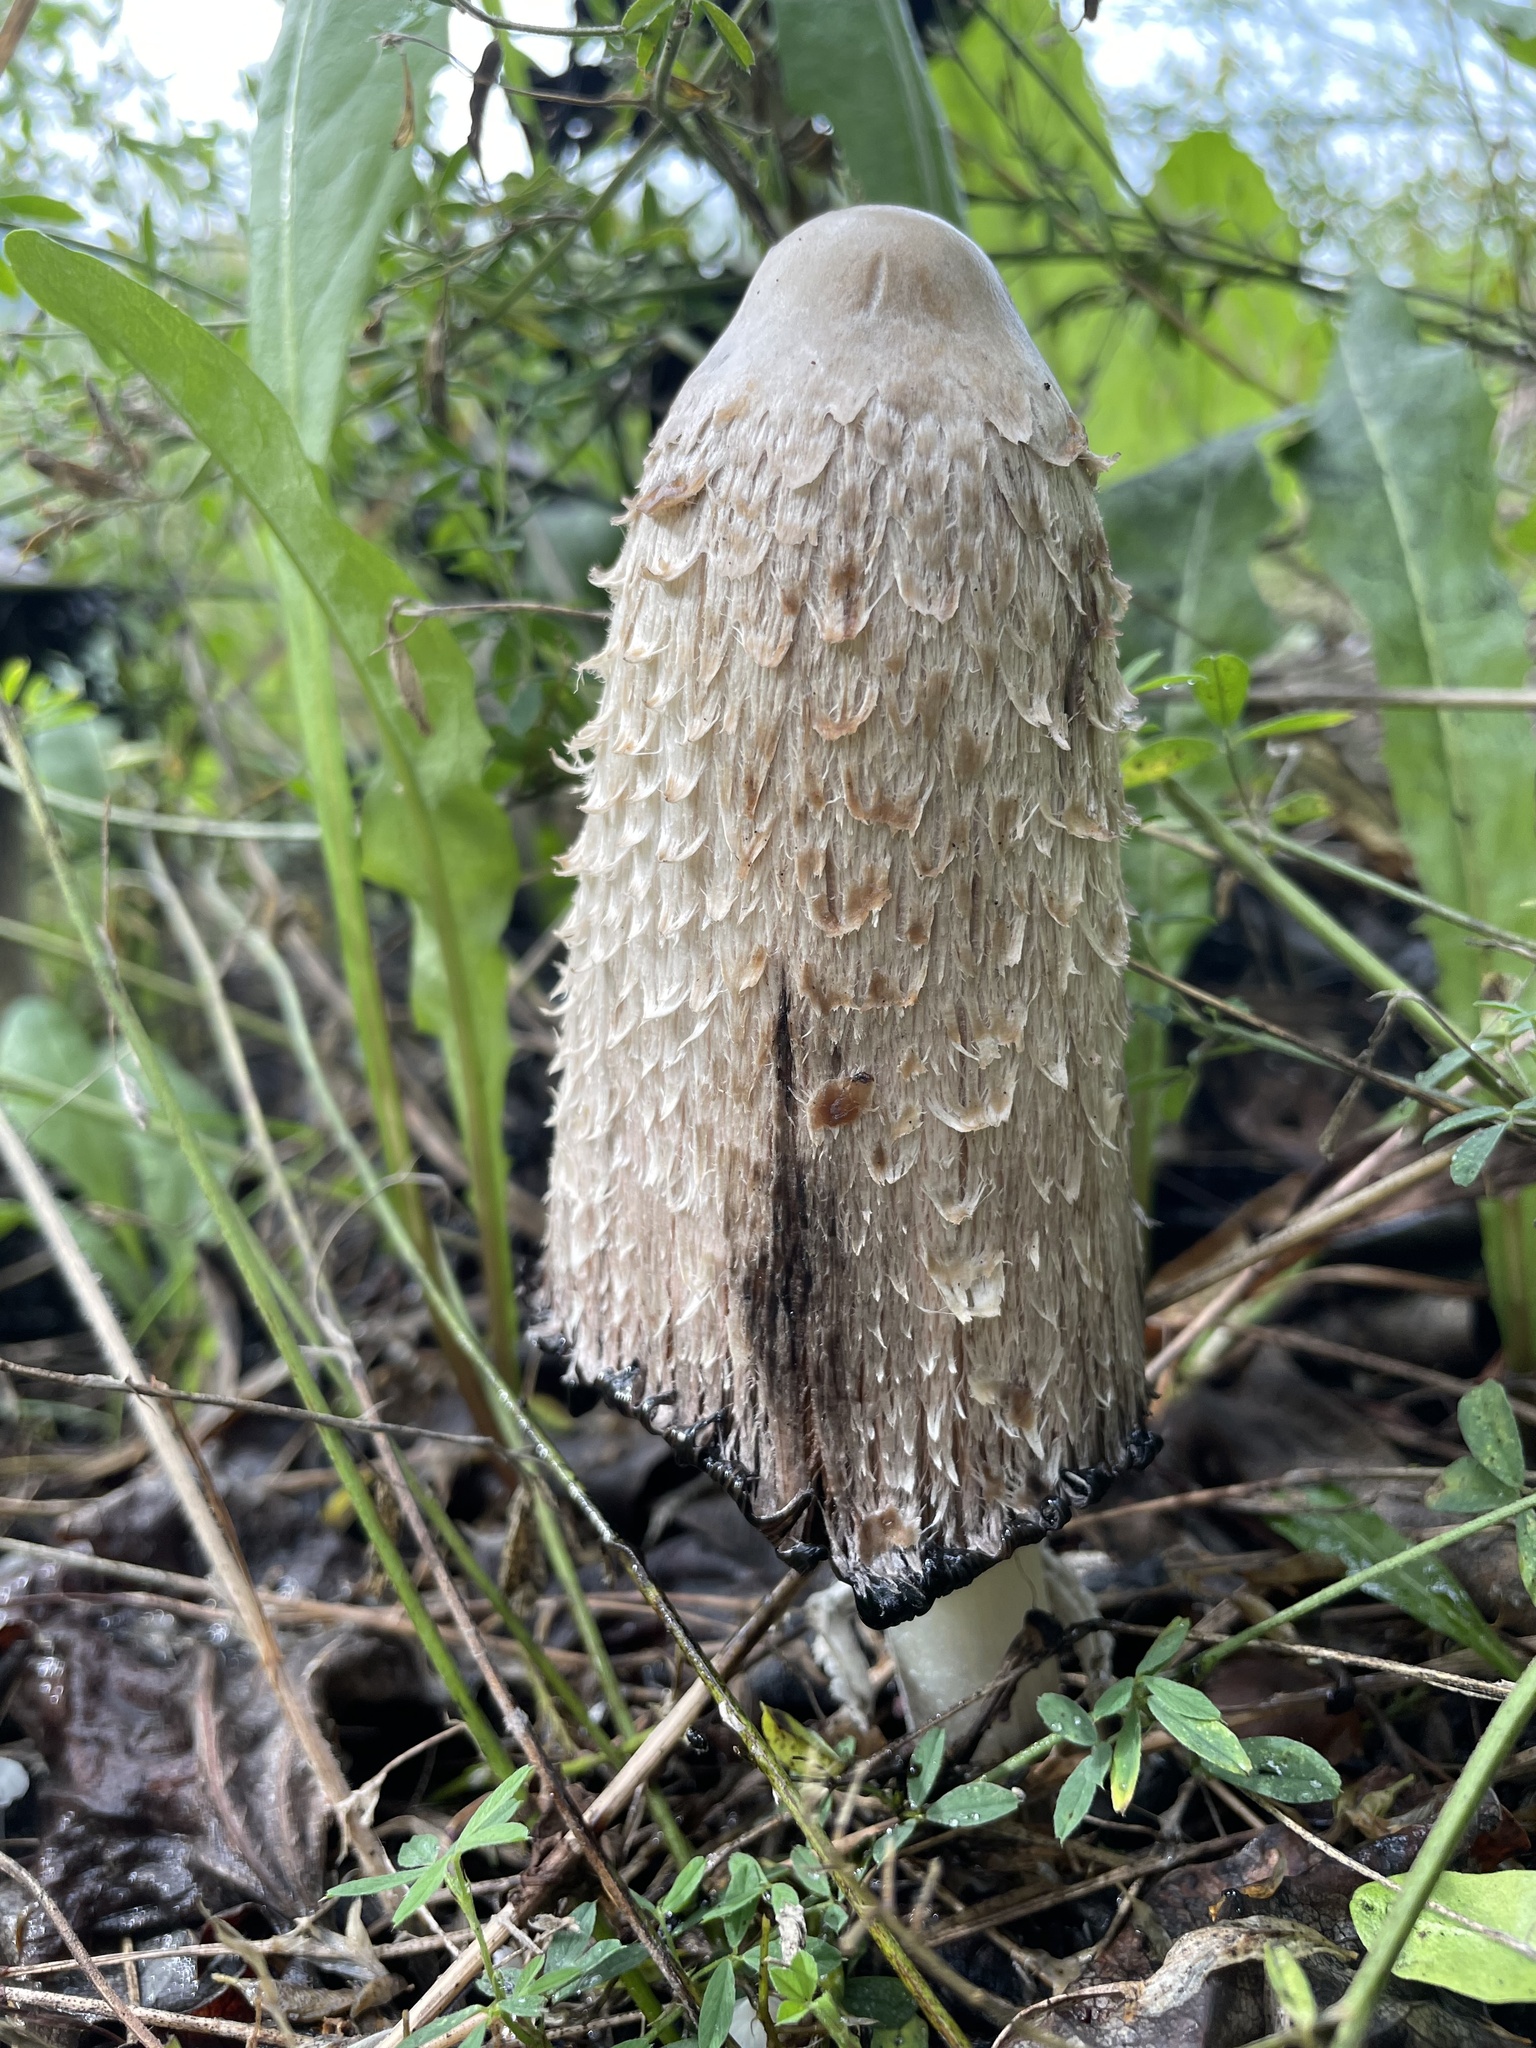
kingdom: Fungi
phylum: Basidiomycota
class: Agaricomycetes
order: Agaricales
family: Agaricaceae
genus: Coprinus
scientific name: Coprinus comatus
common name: Lawyer's wig
